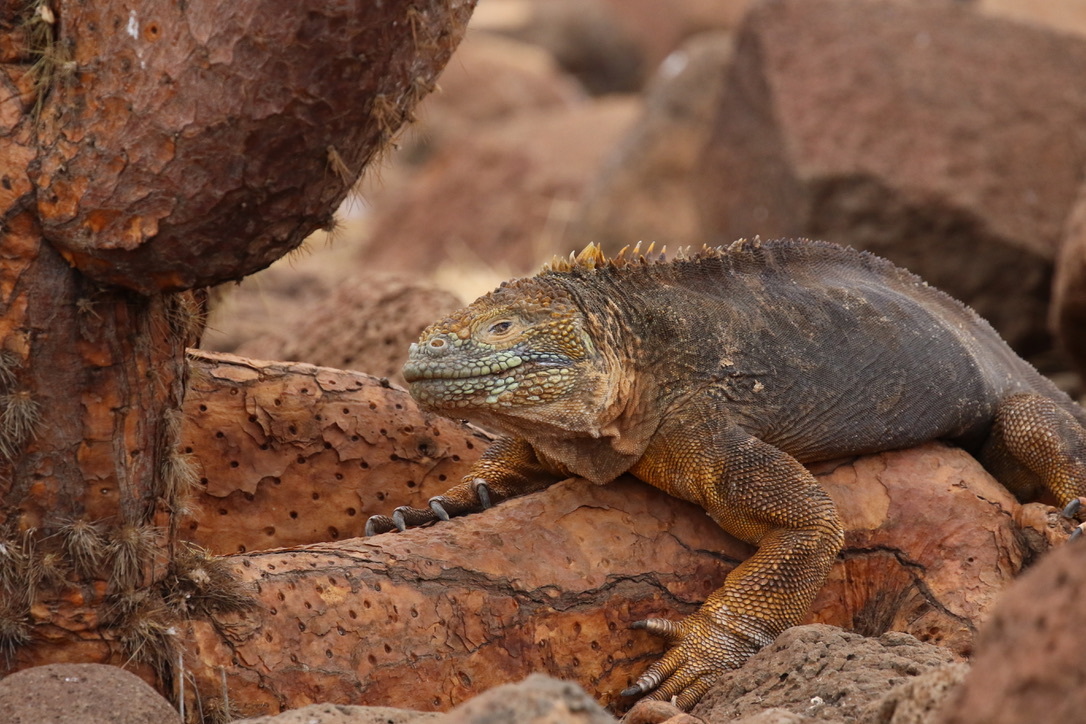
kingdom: Animalia
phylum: Chordata
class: Squamata
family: Iguanidae
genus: Conolophus
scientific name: Conolophus subcristatus
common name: Galapagos land iguana
